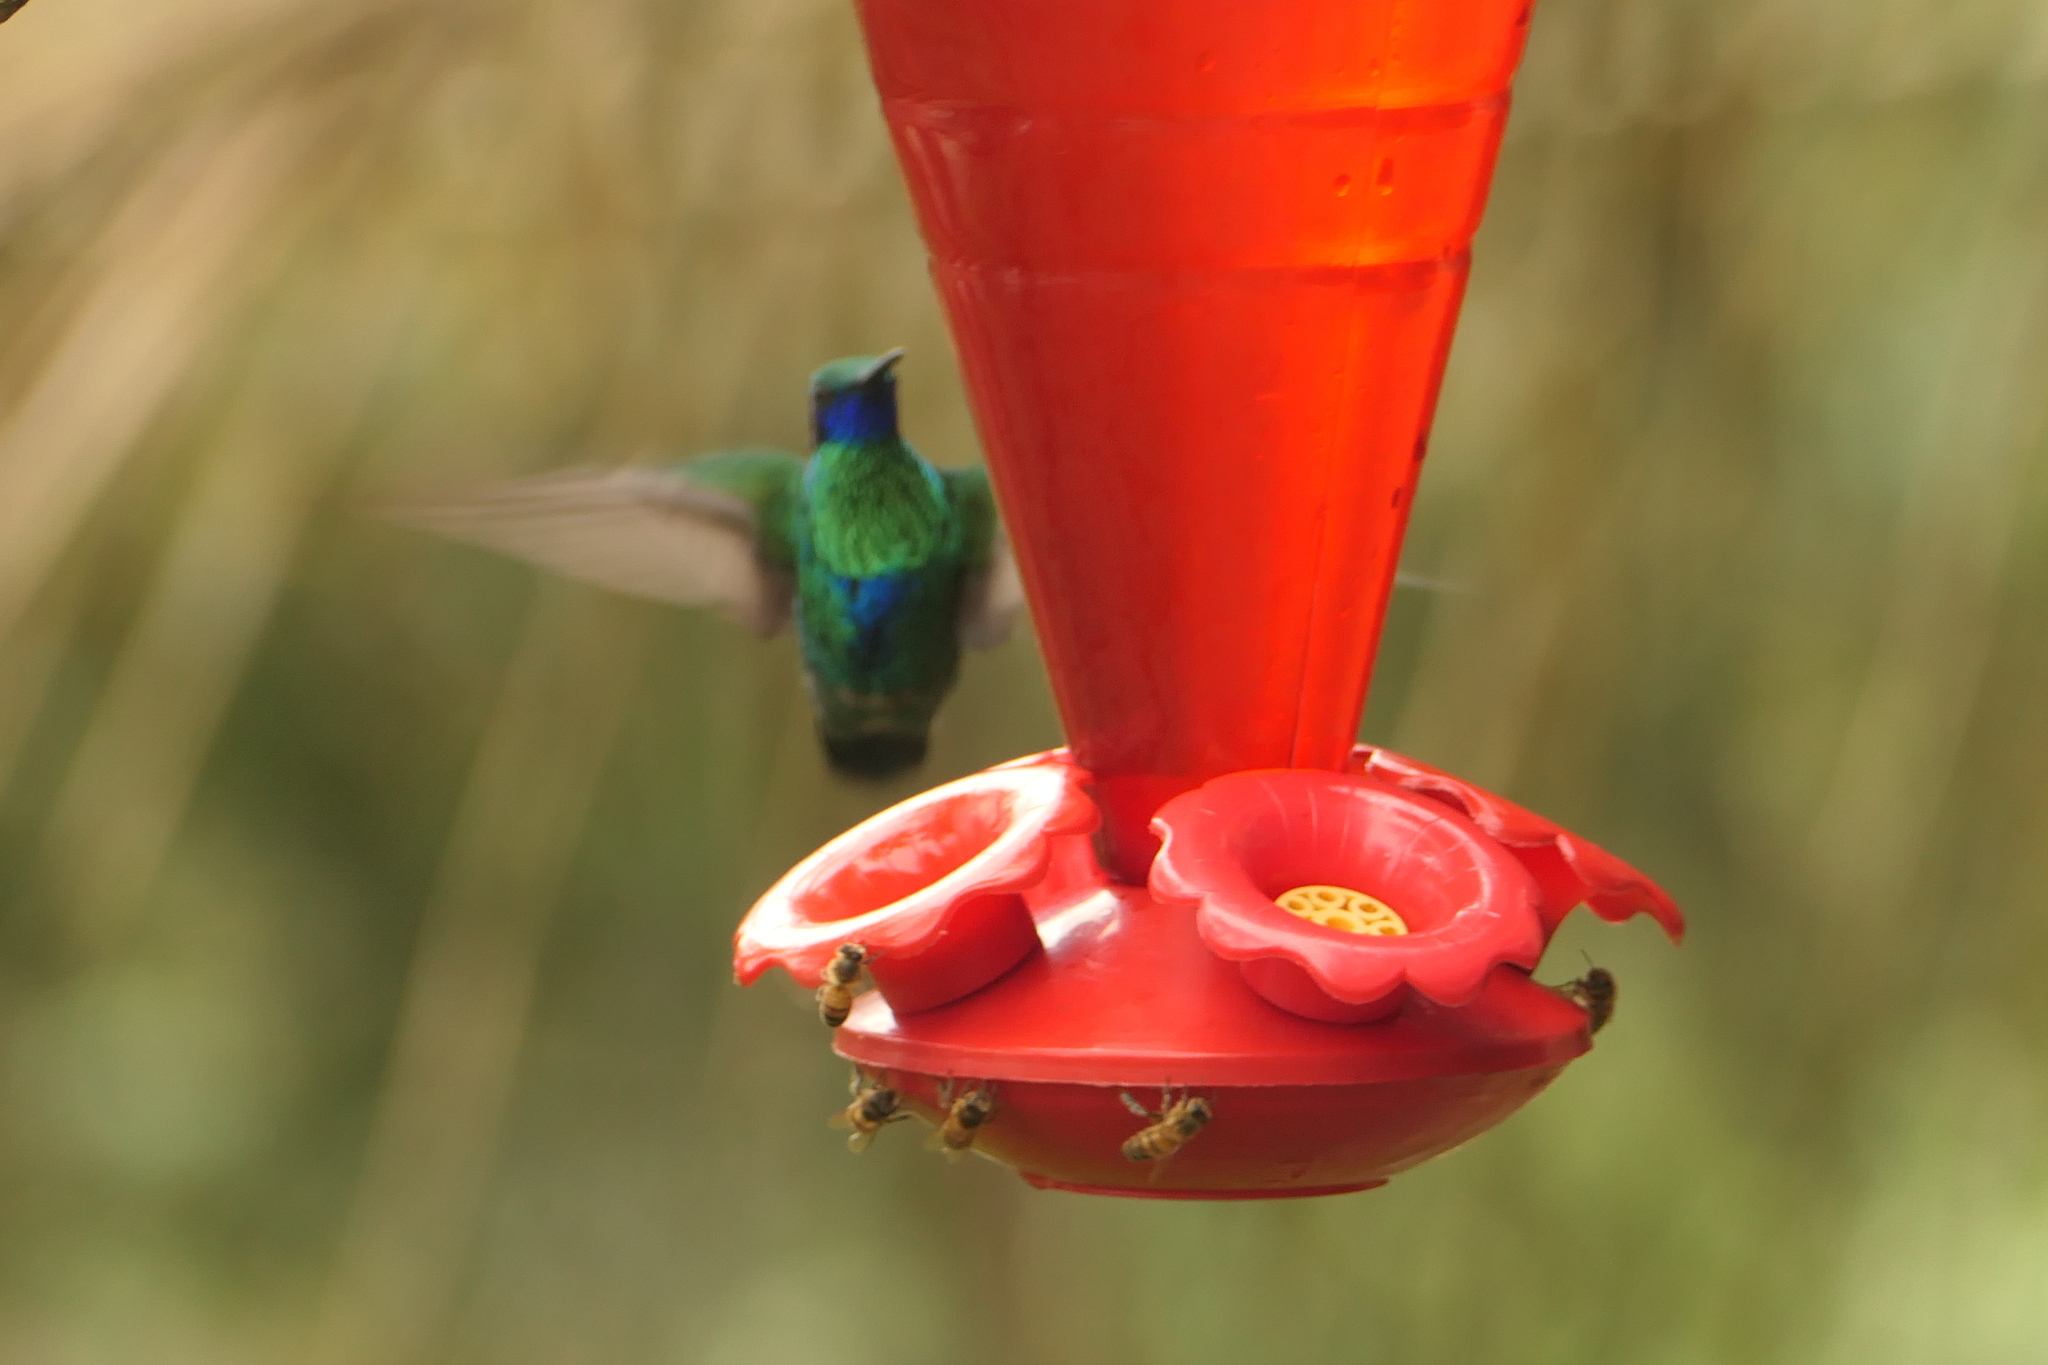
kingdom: Animalia
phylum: Chordata
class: Aves
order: Apodiformes
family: Trochilidae
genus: Colibri
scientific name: Colibri coruscans
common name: Sparkling violetear
